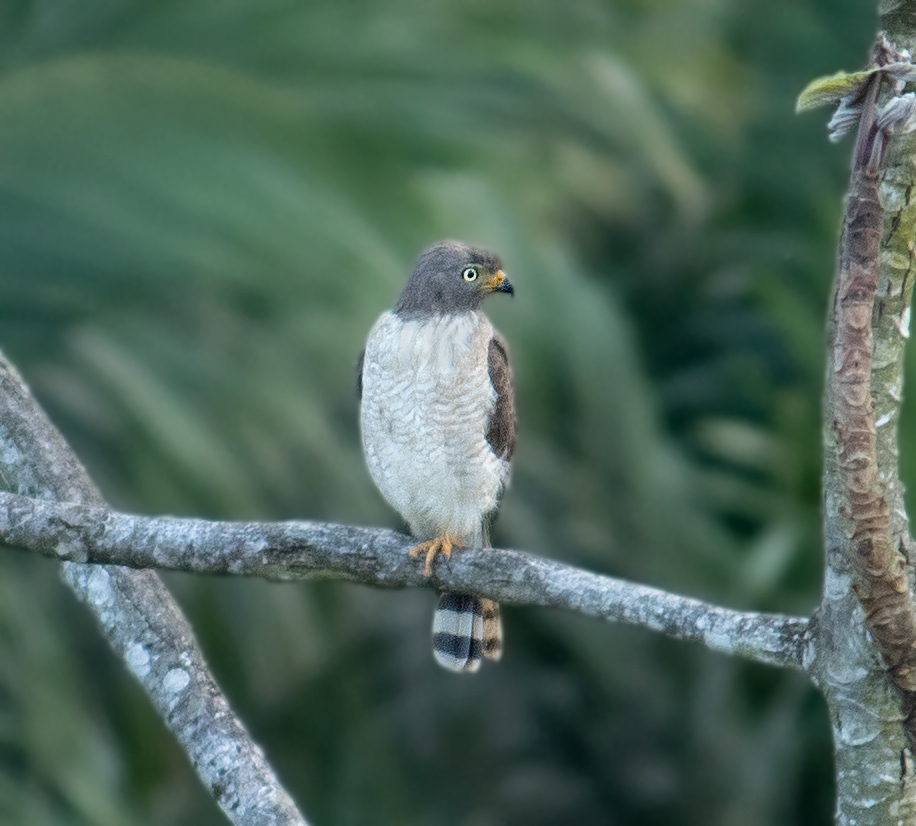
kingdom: Animalia
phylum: Chordata
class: Aves
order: Accipitriformes
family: Accipitridae
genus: Rupornis
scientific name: Rupornis magnirostris
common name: Roadside hawk
